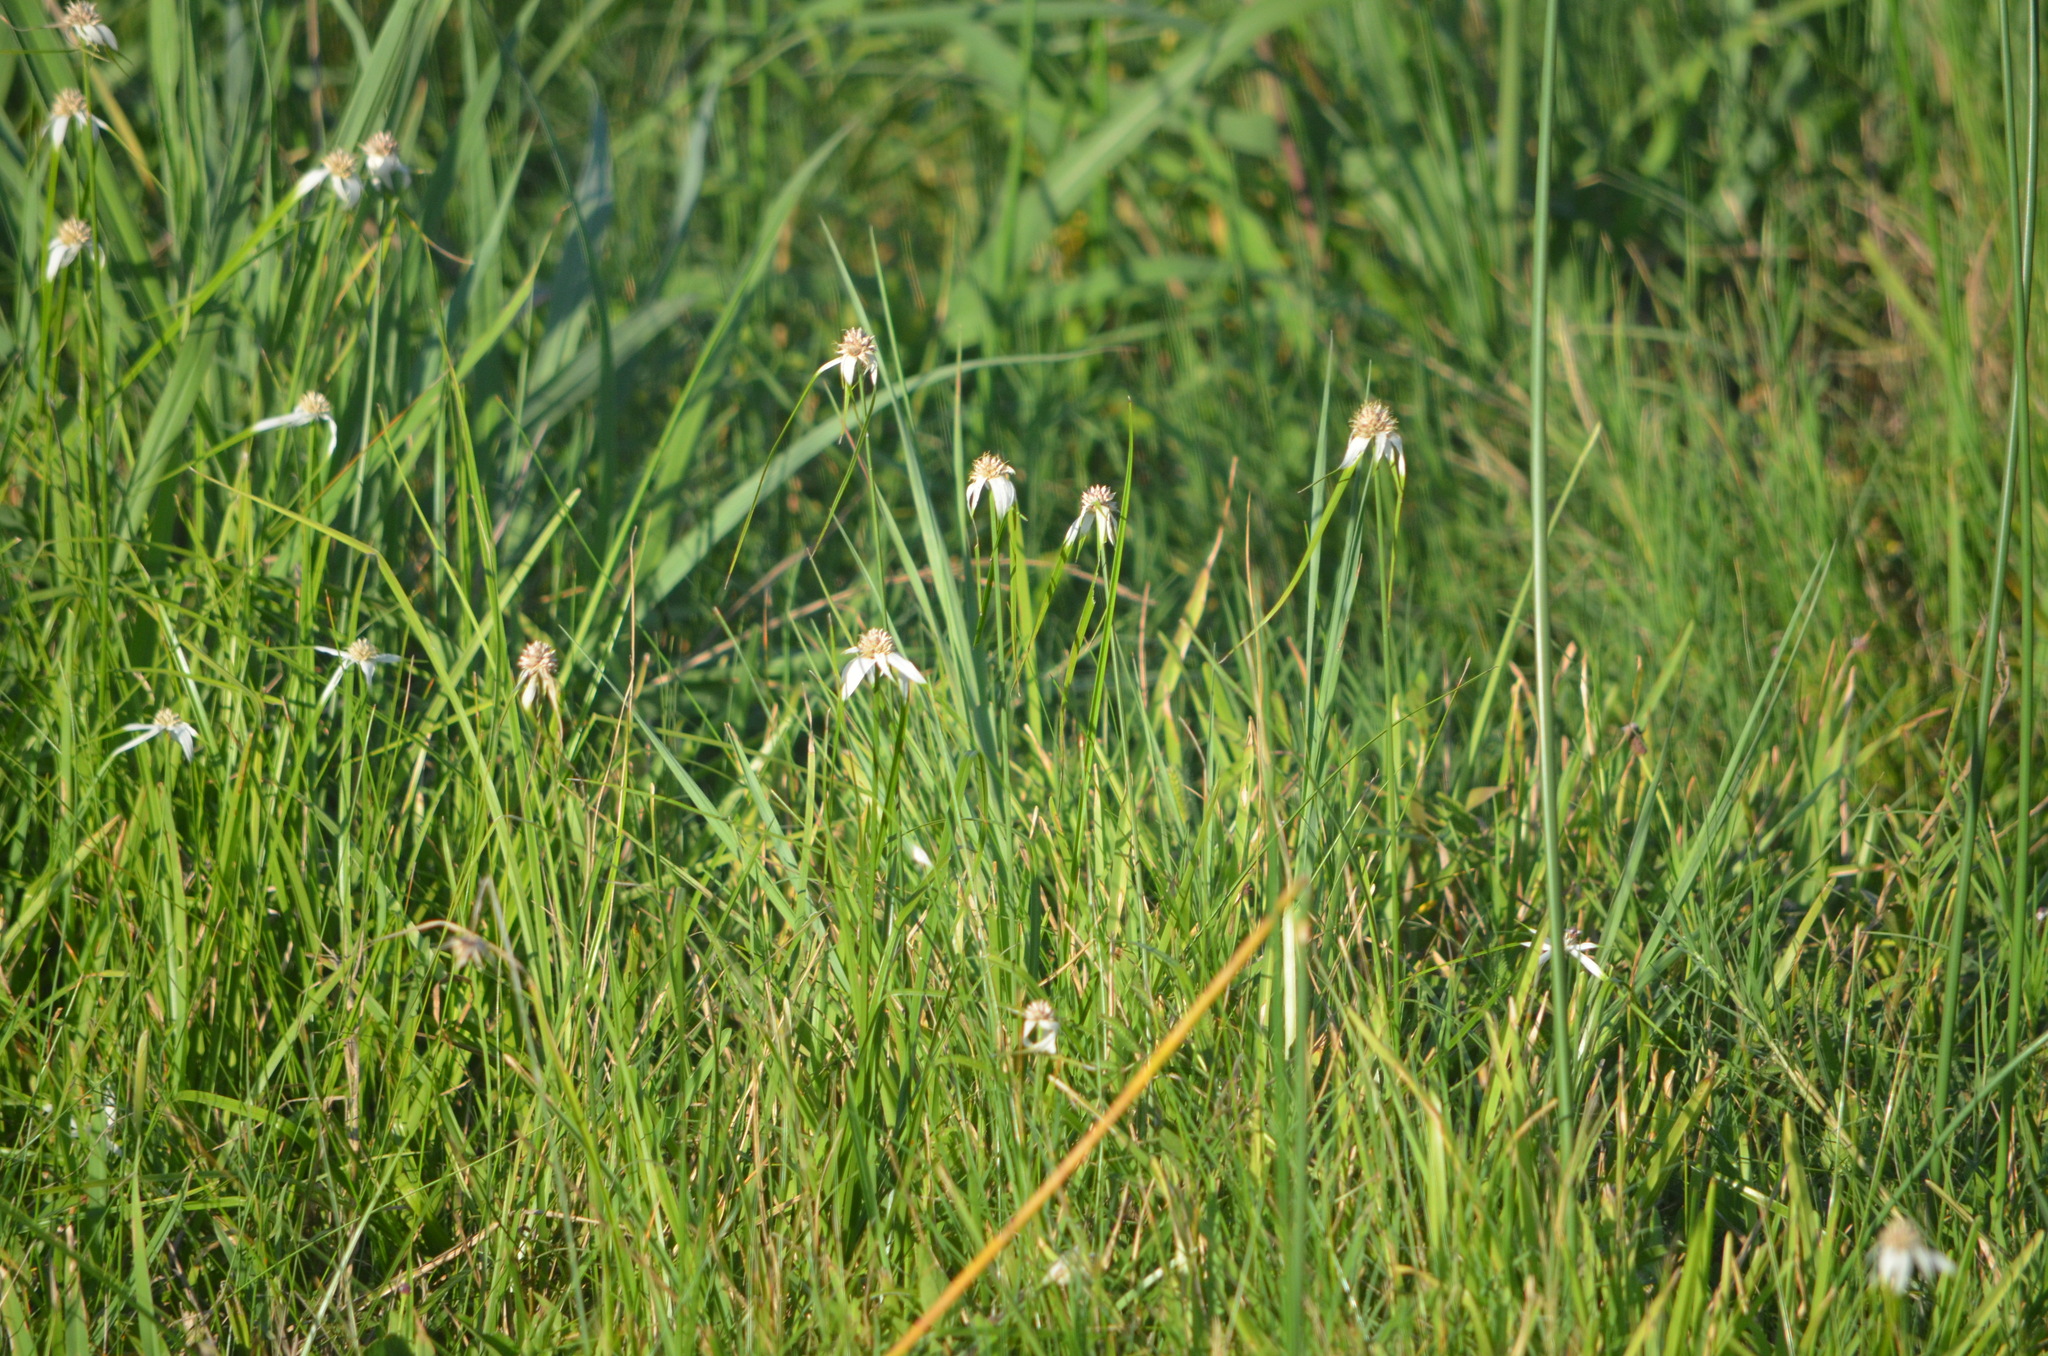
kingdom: Plantae
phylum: Tracheophyta
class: Liliopsida
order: Poales
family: Cyperaceae
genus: Rhynchospora
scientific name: Rhynchospora colorata
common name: Star sedge
